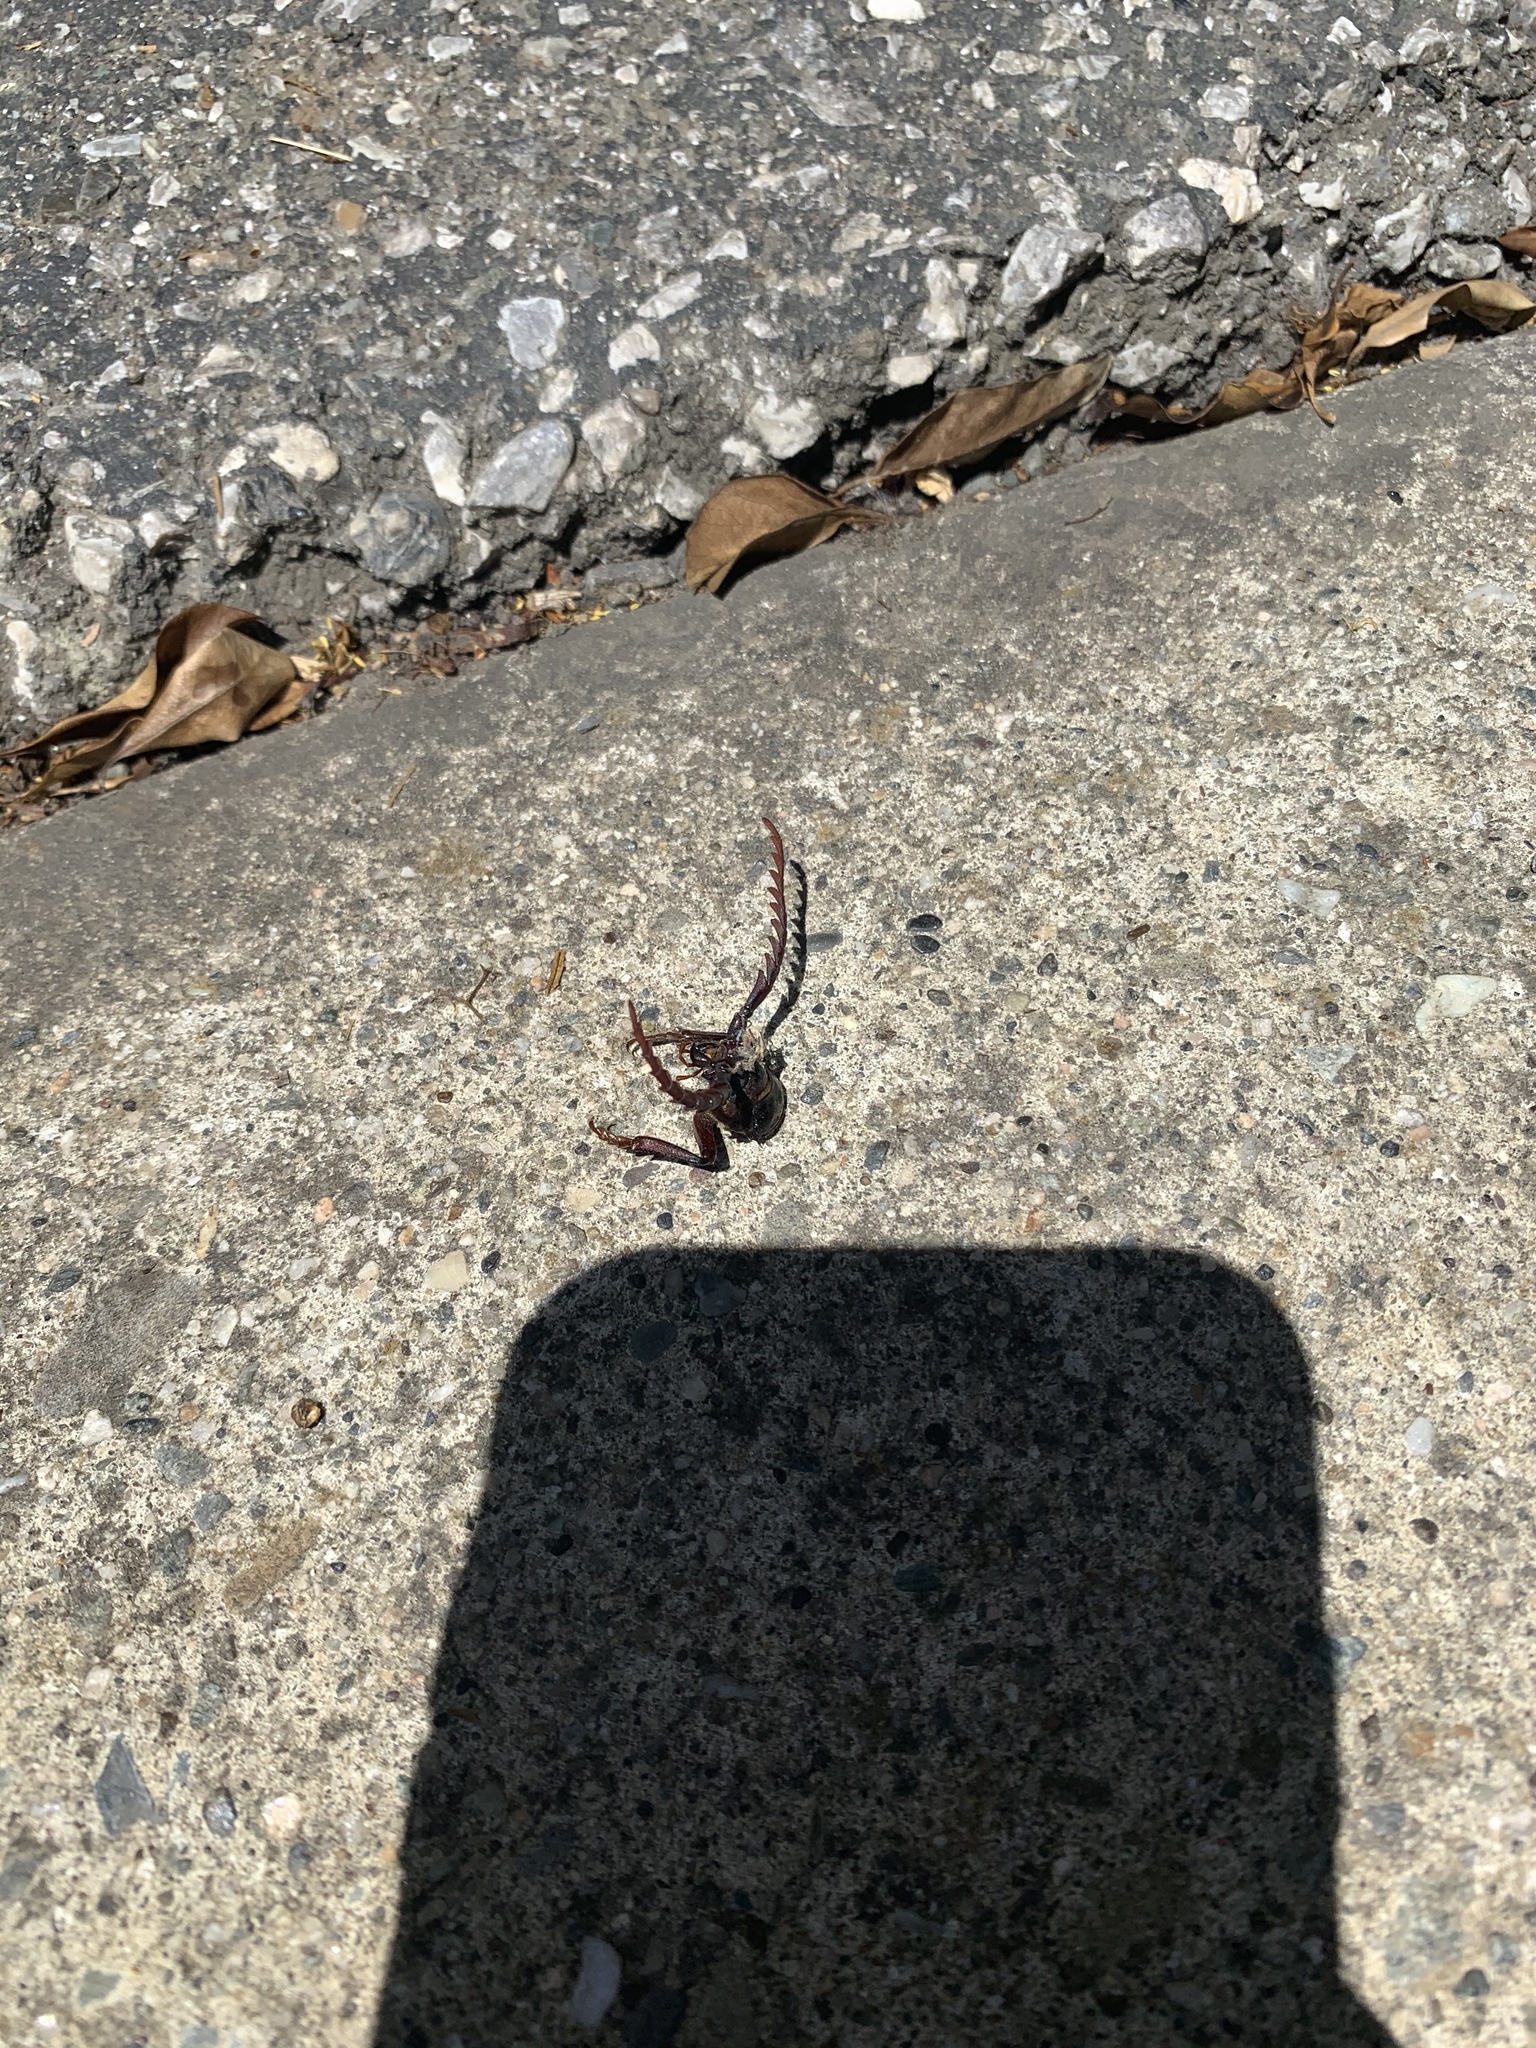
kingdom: Animalia
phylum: Arthropoda
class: Insecta
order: Coleoptera
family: Cerambycidae
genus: Prionus
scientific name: Prionus californicus
